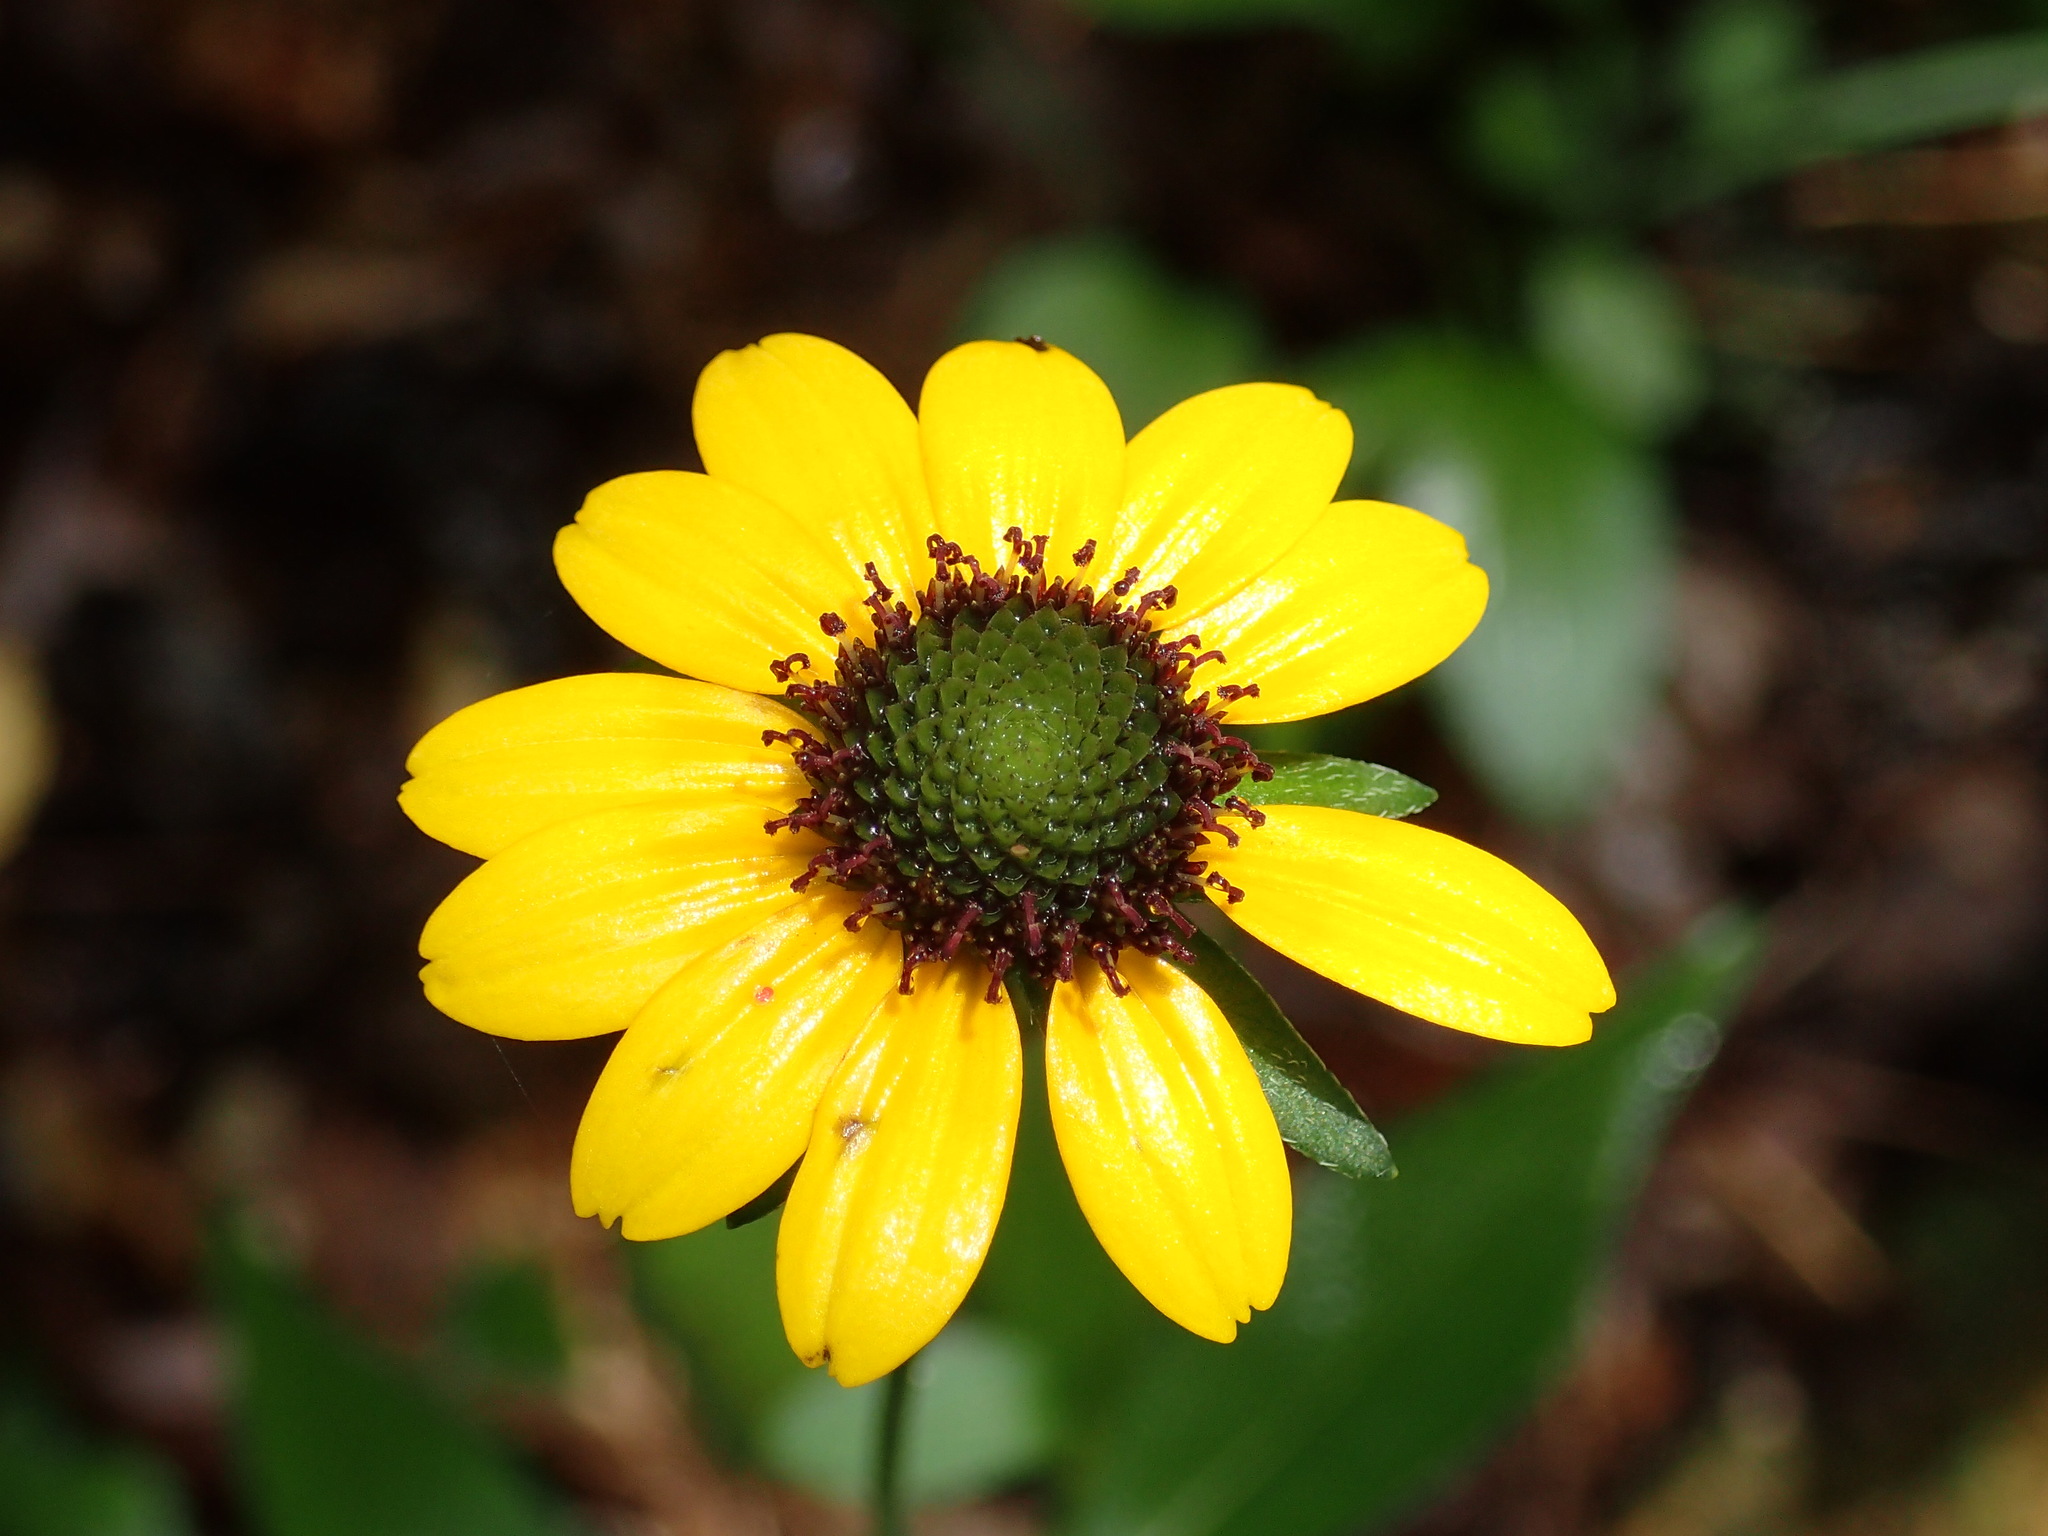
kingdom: Plantae
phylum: Tracheophyta
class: Magnoliopsida
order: Asterales
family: Asteraceae
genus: Rudbeckia
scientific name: Rudbeckia hirta
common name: Black-eyed-susan
